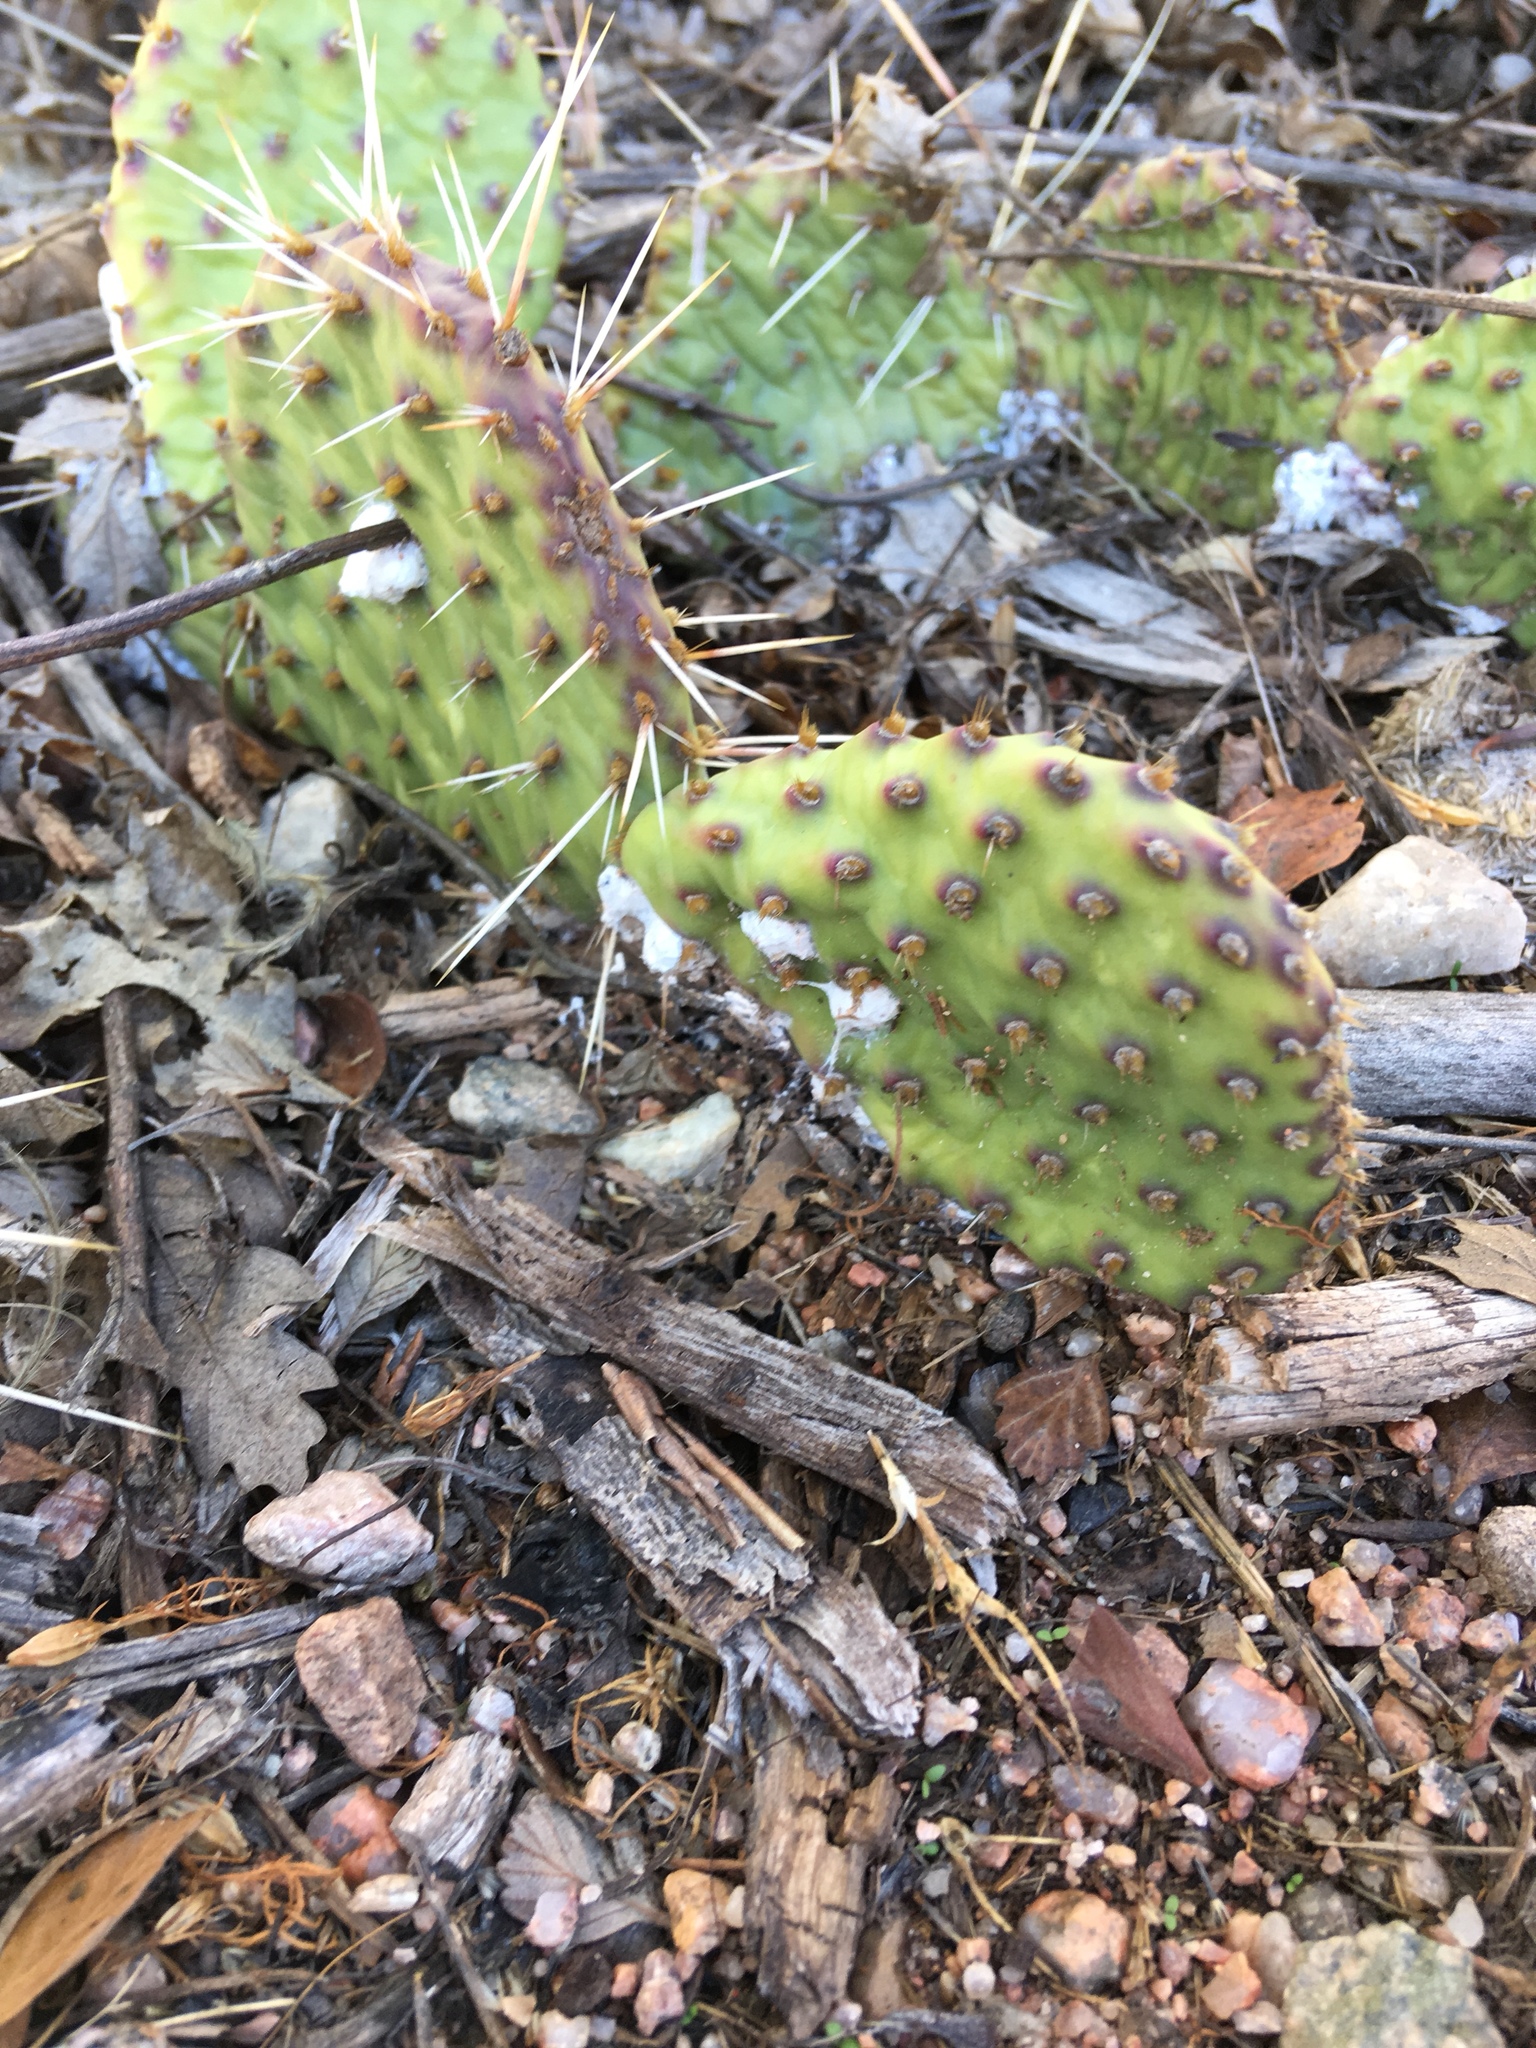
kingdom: Plantae
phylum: Tracheophyta
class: Magnoliopsida
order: Caryophyllales
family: Cactaceae
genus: Opuntia
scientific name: Opuntia macrorhiza
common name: Grassland pricklypear
